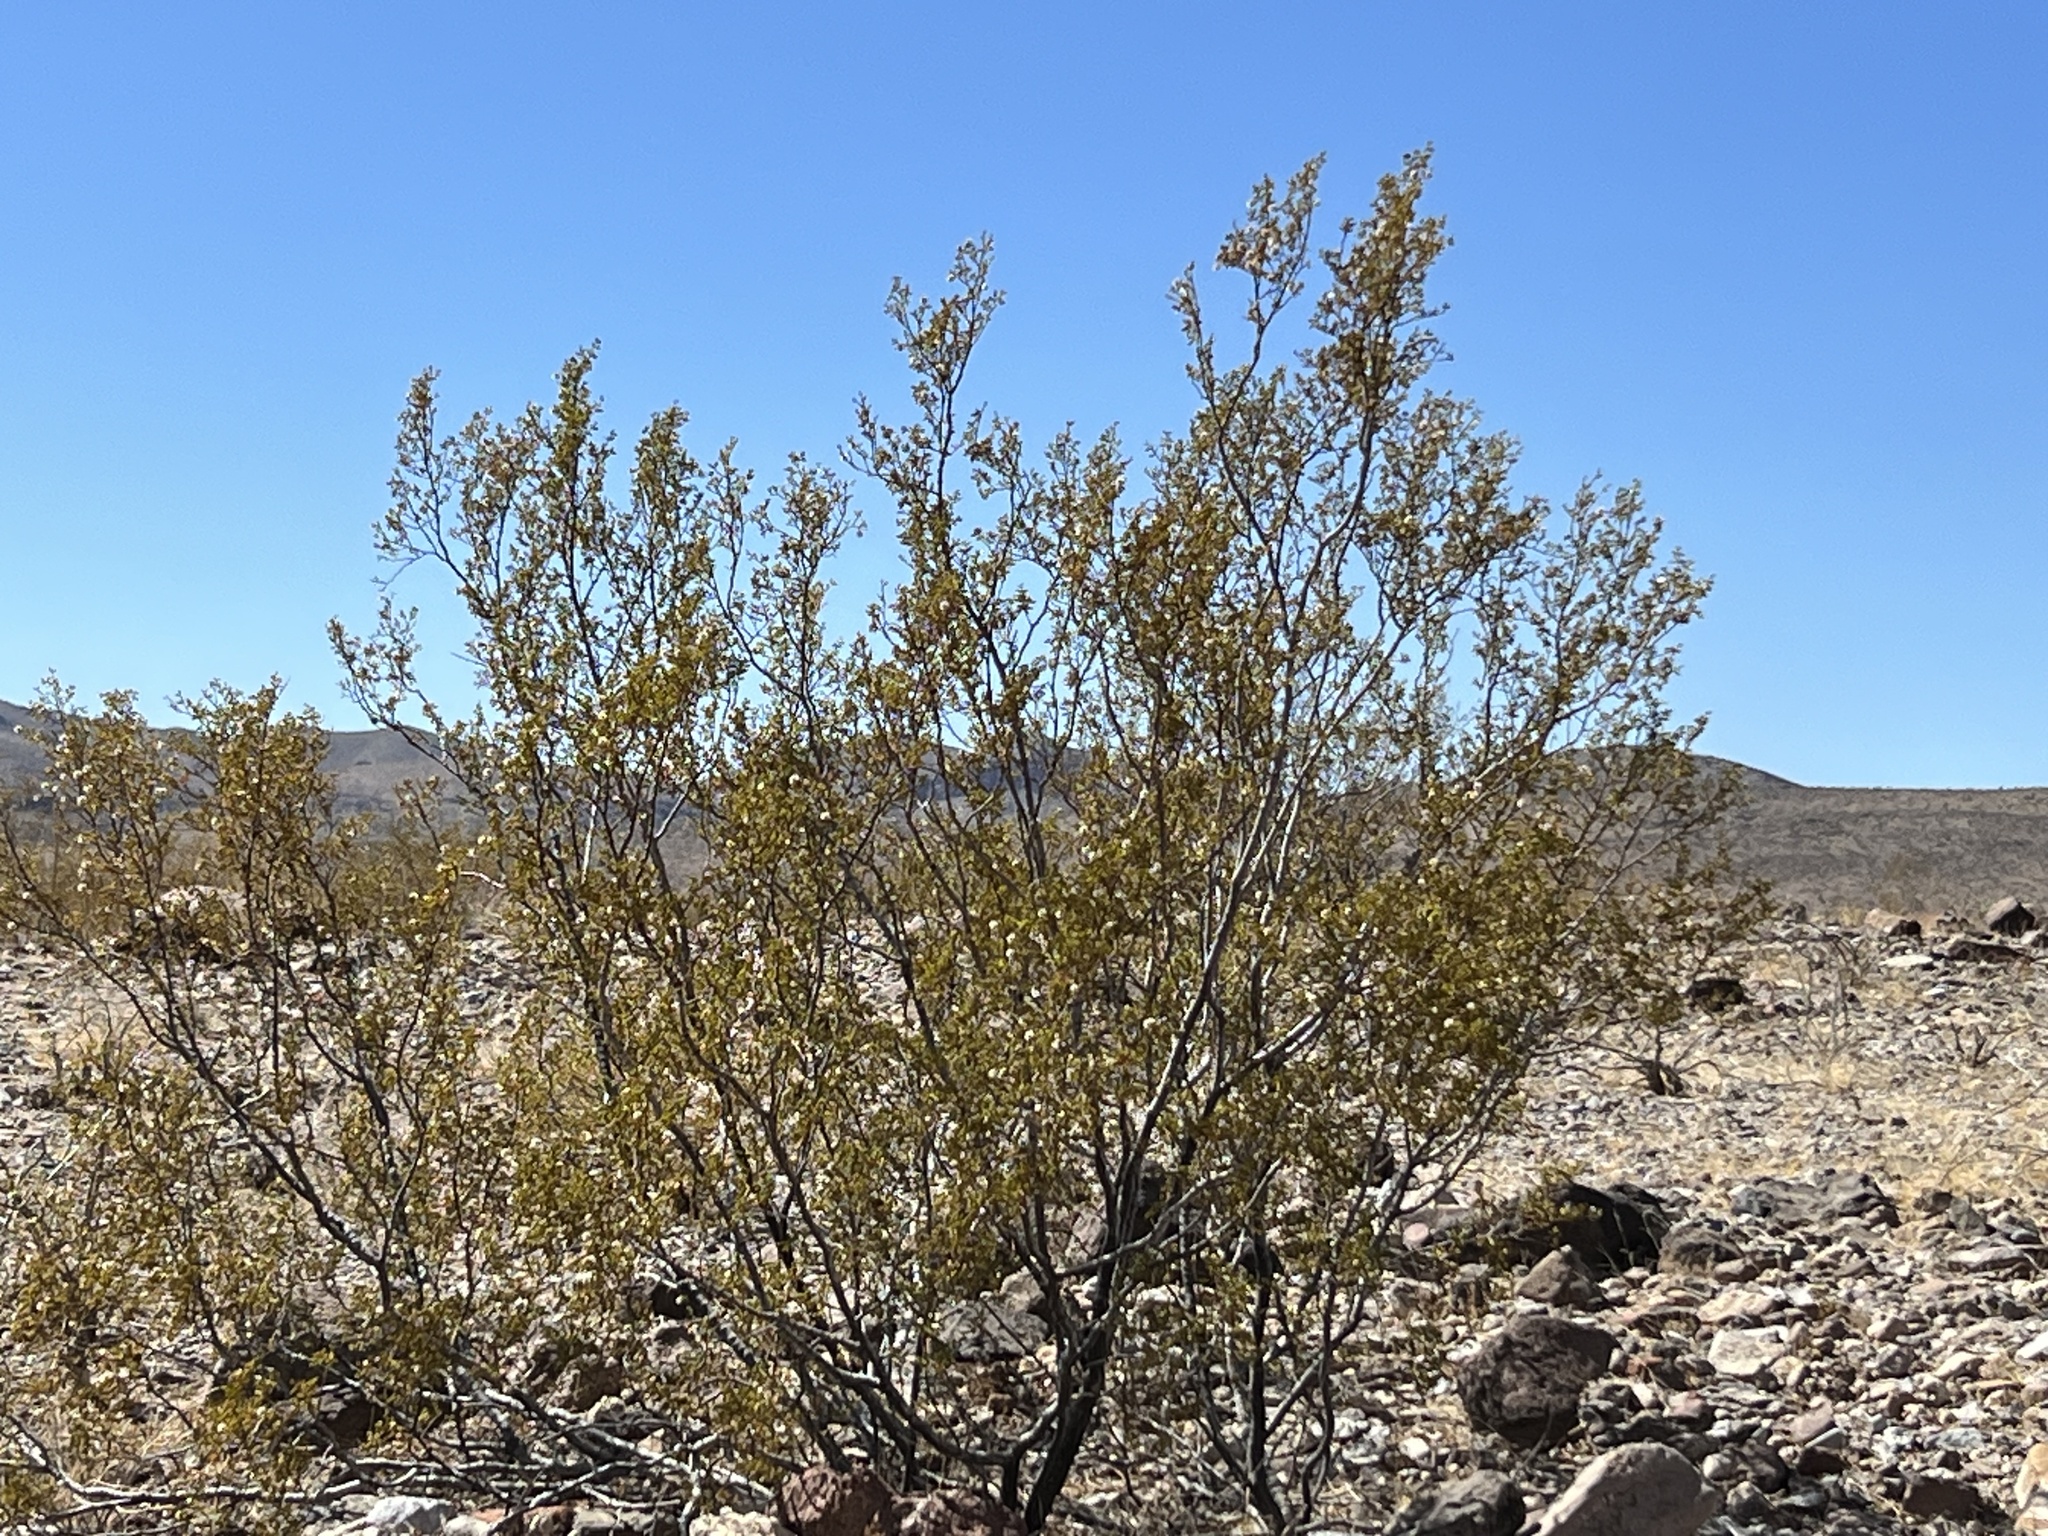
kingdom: Plantae
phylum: Tracheophyta
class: Magnoliopsida
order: Zygophyllales
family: Zygophyllaceae
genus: Larrea
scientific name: Larrea tridentata
